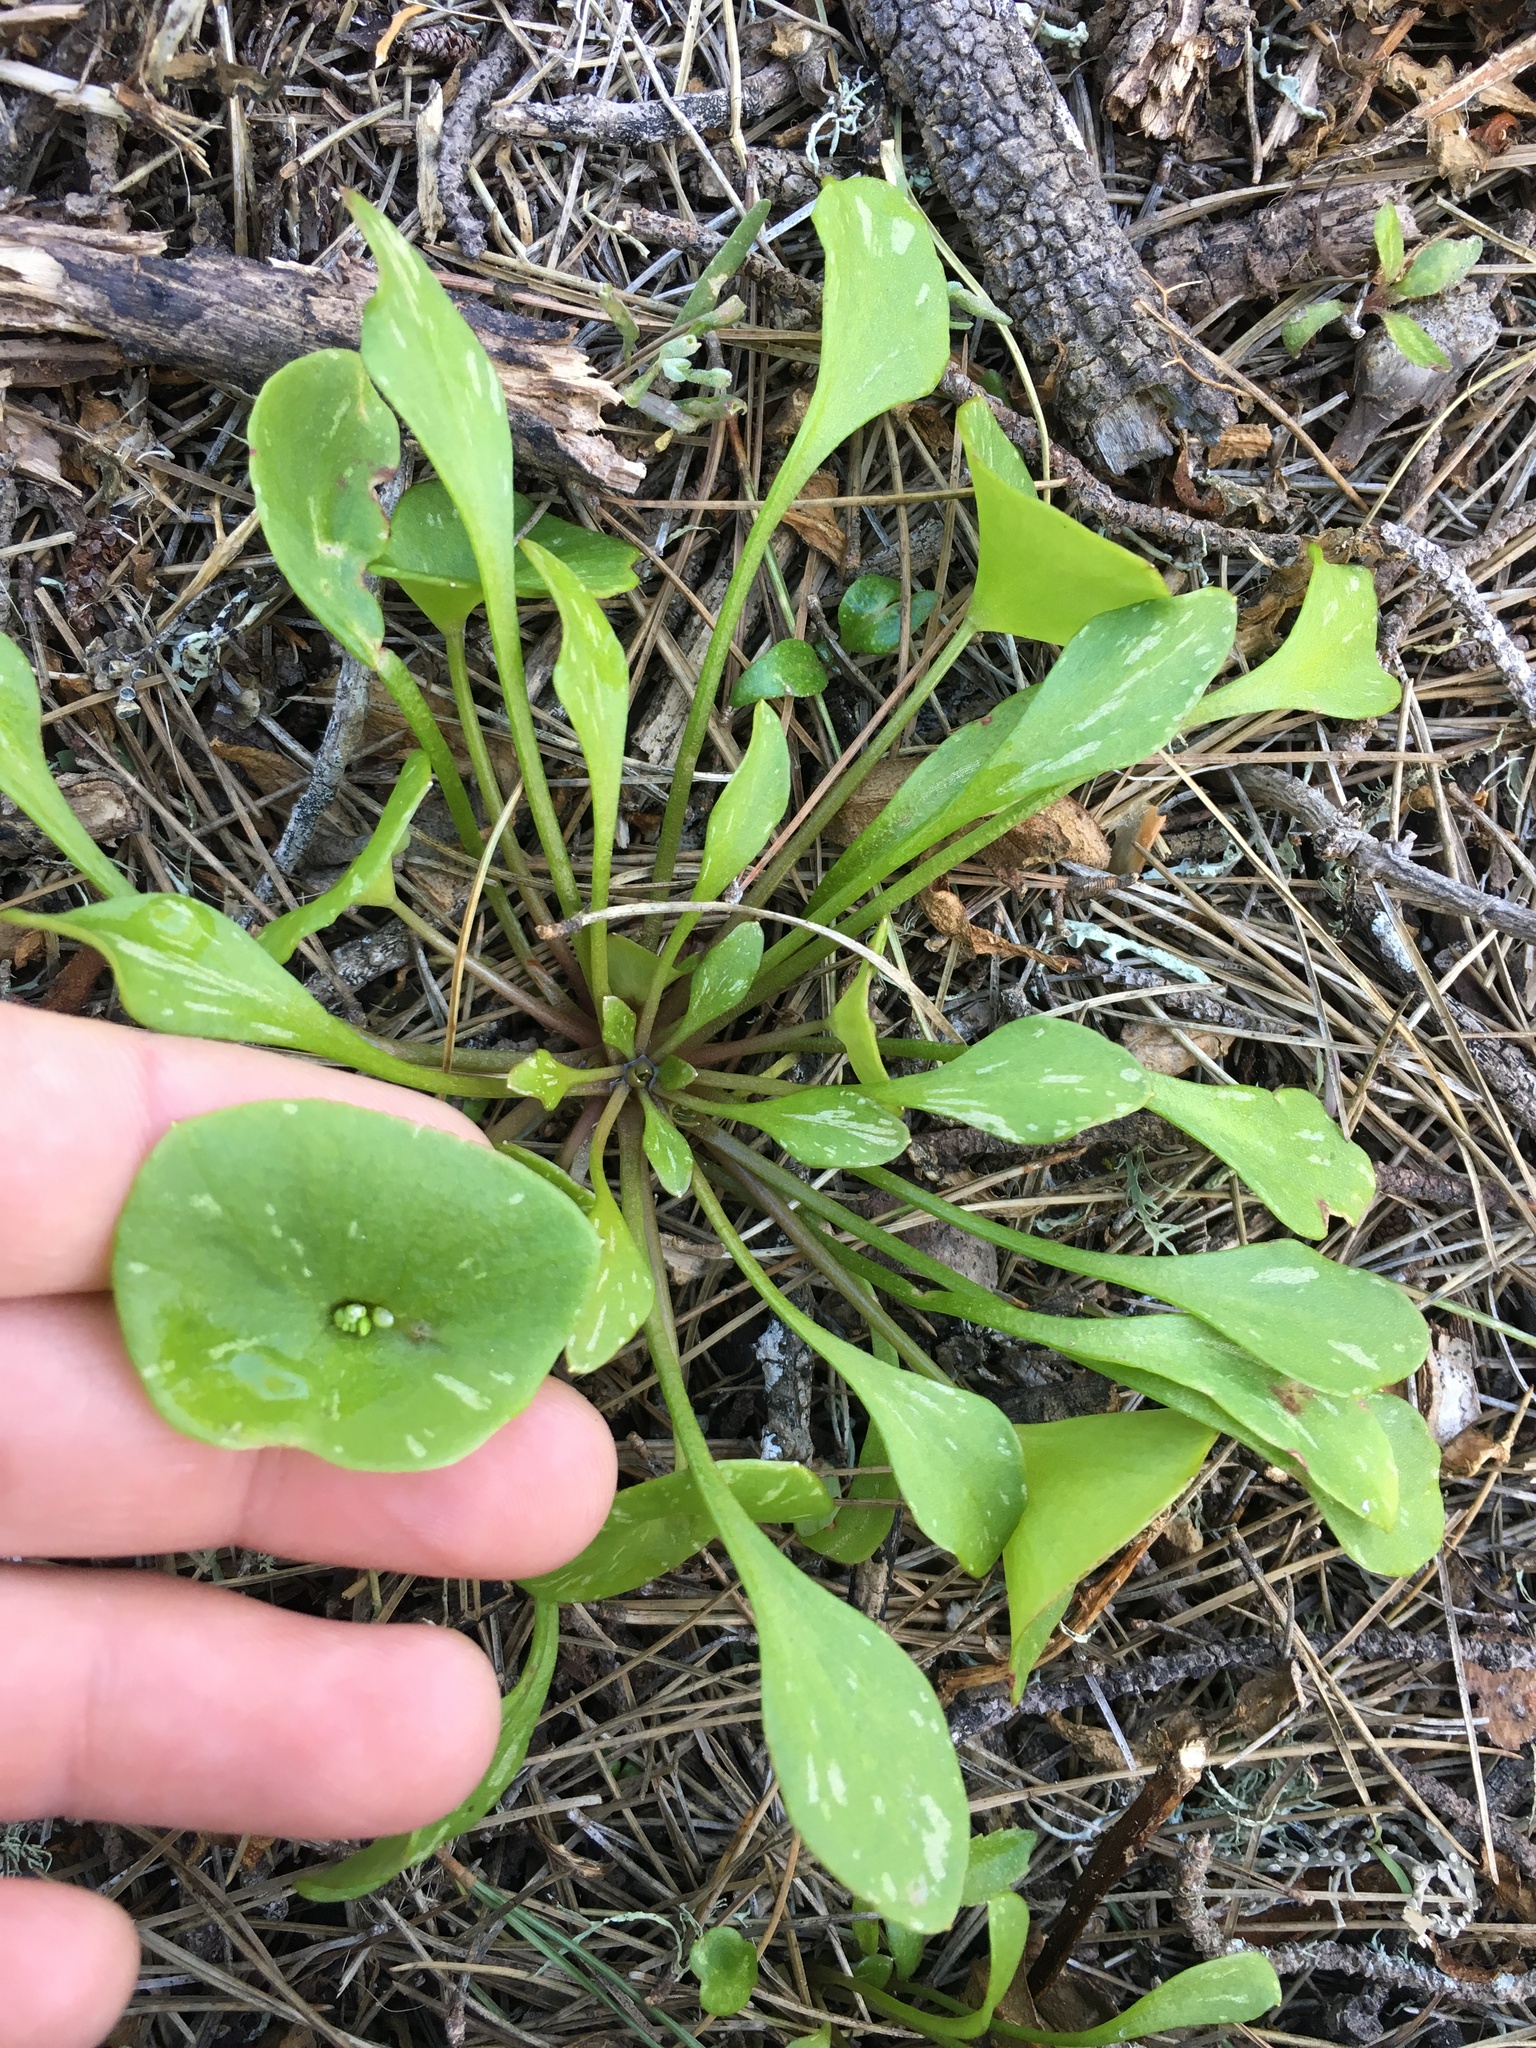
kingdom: Plantae
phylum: Tracheophyta
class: Magnoliopsida
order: Caryophyllales
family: Montiaceae
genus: Claytonia
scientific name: Claytonia perfoliata
